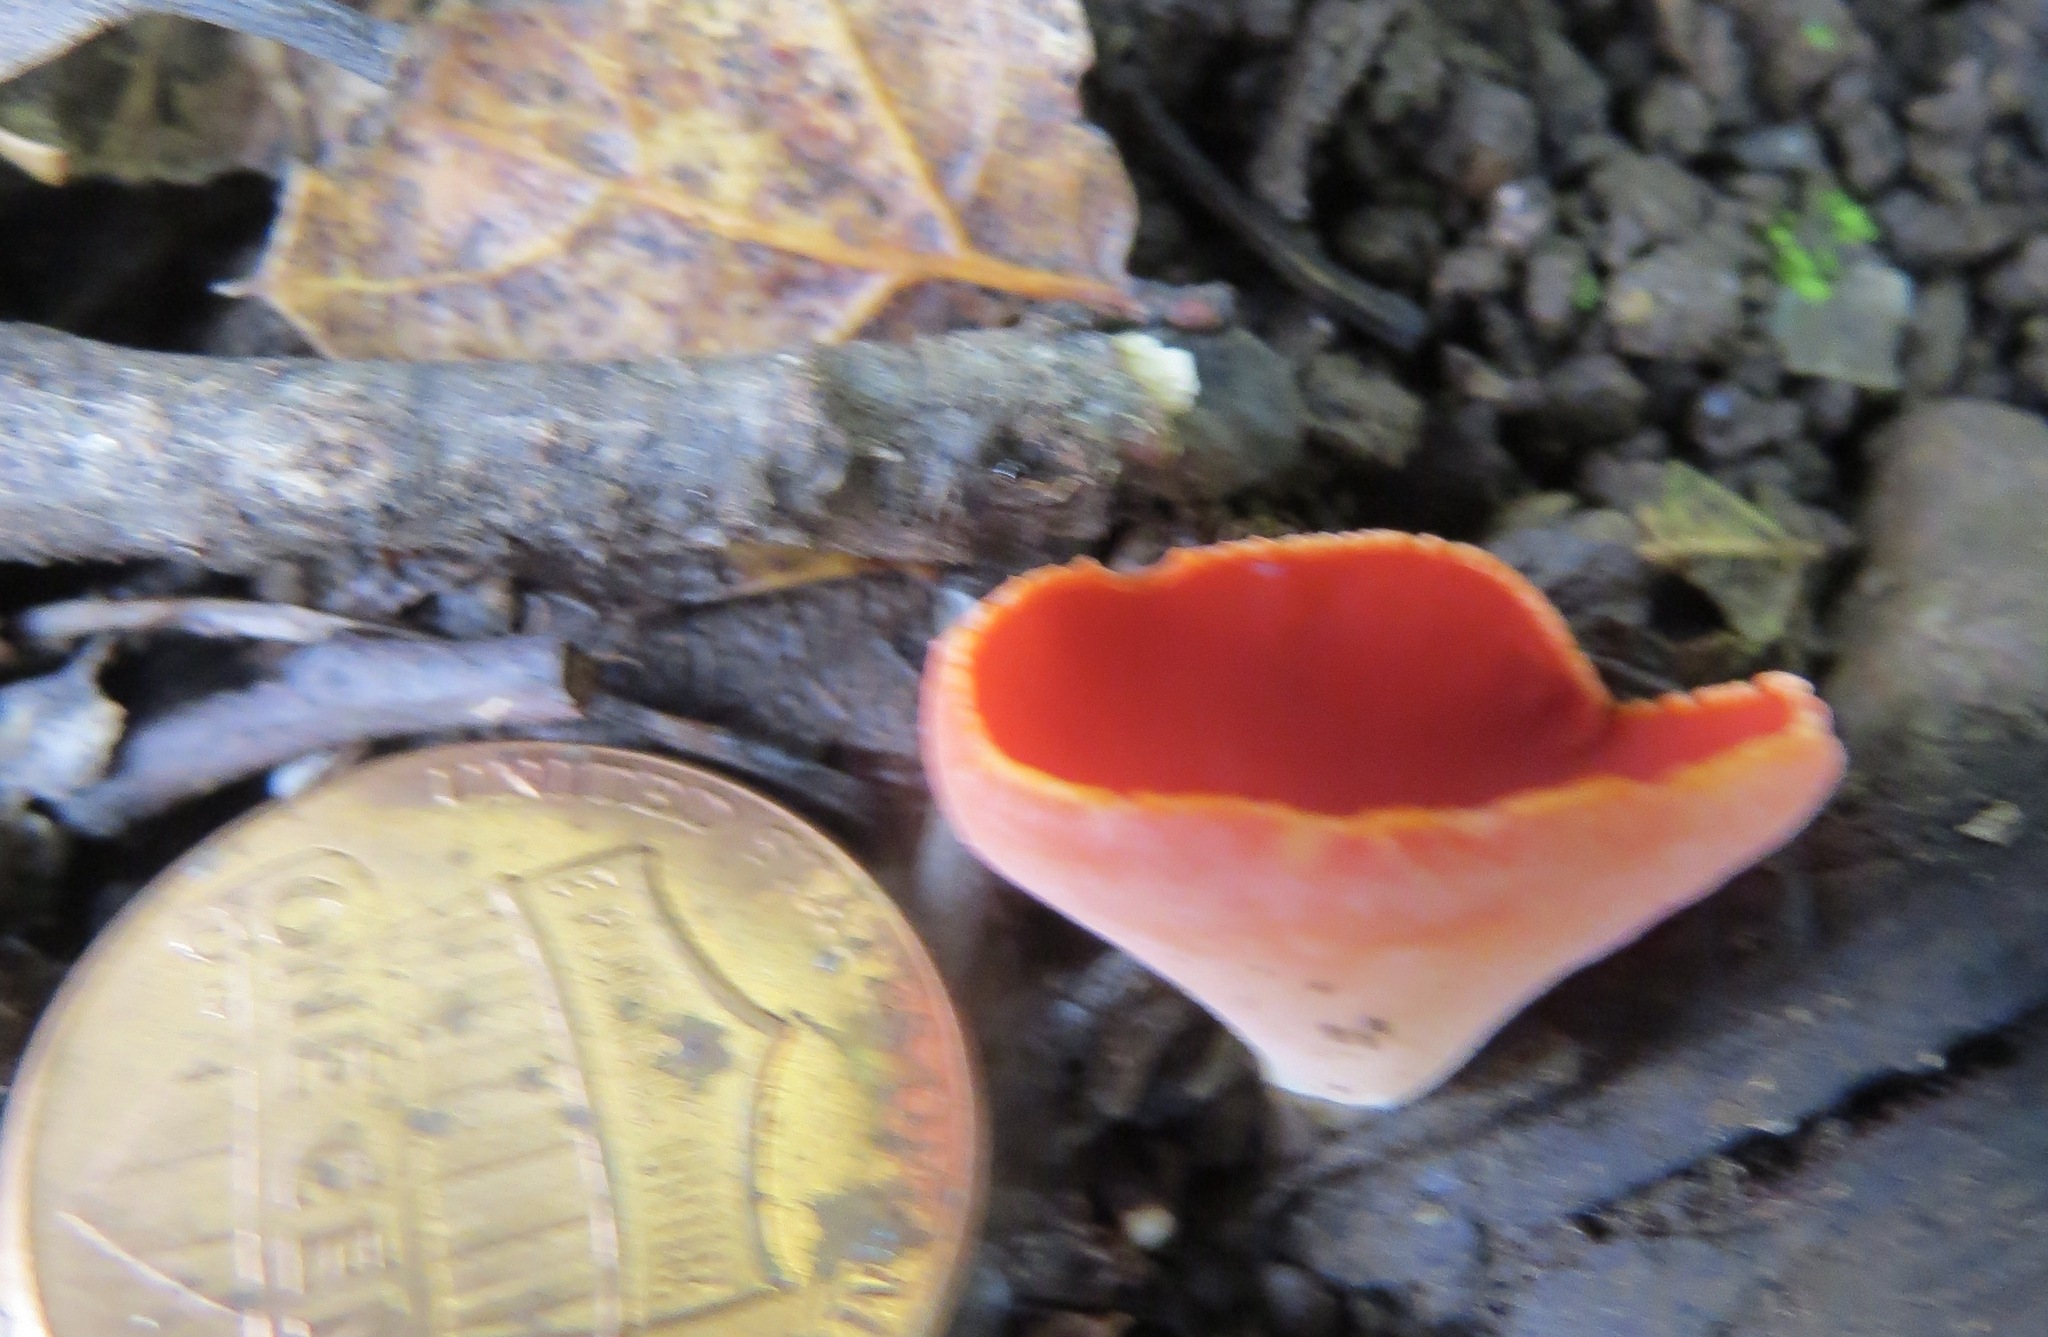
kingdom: Fungi
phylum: Ascomycota
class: Pezizomycetes
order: Pezizales
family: Sarcoscyphaceae
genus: Sarcoscypha
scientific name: Sarcoscypha coccinea
